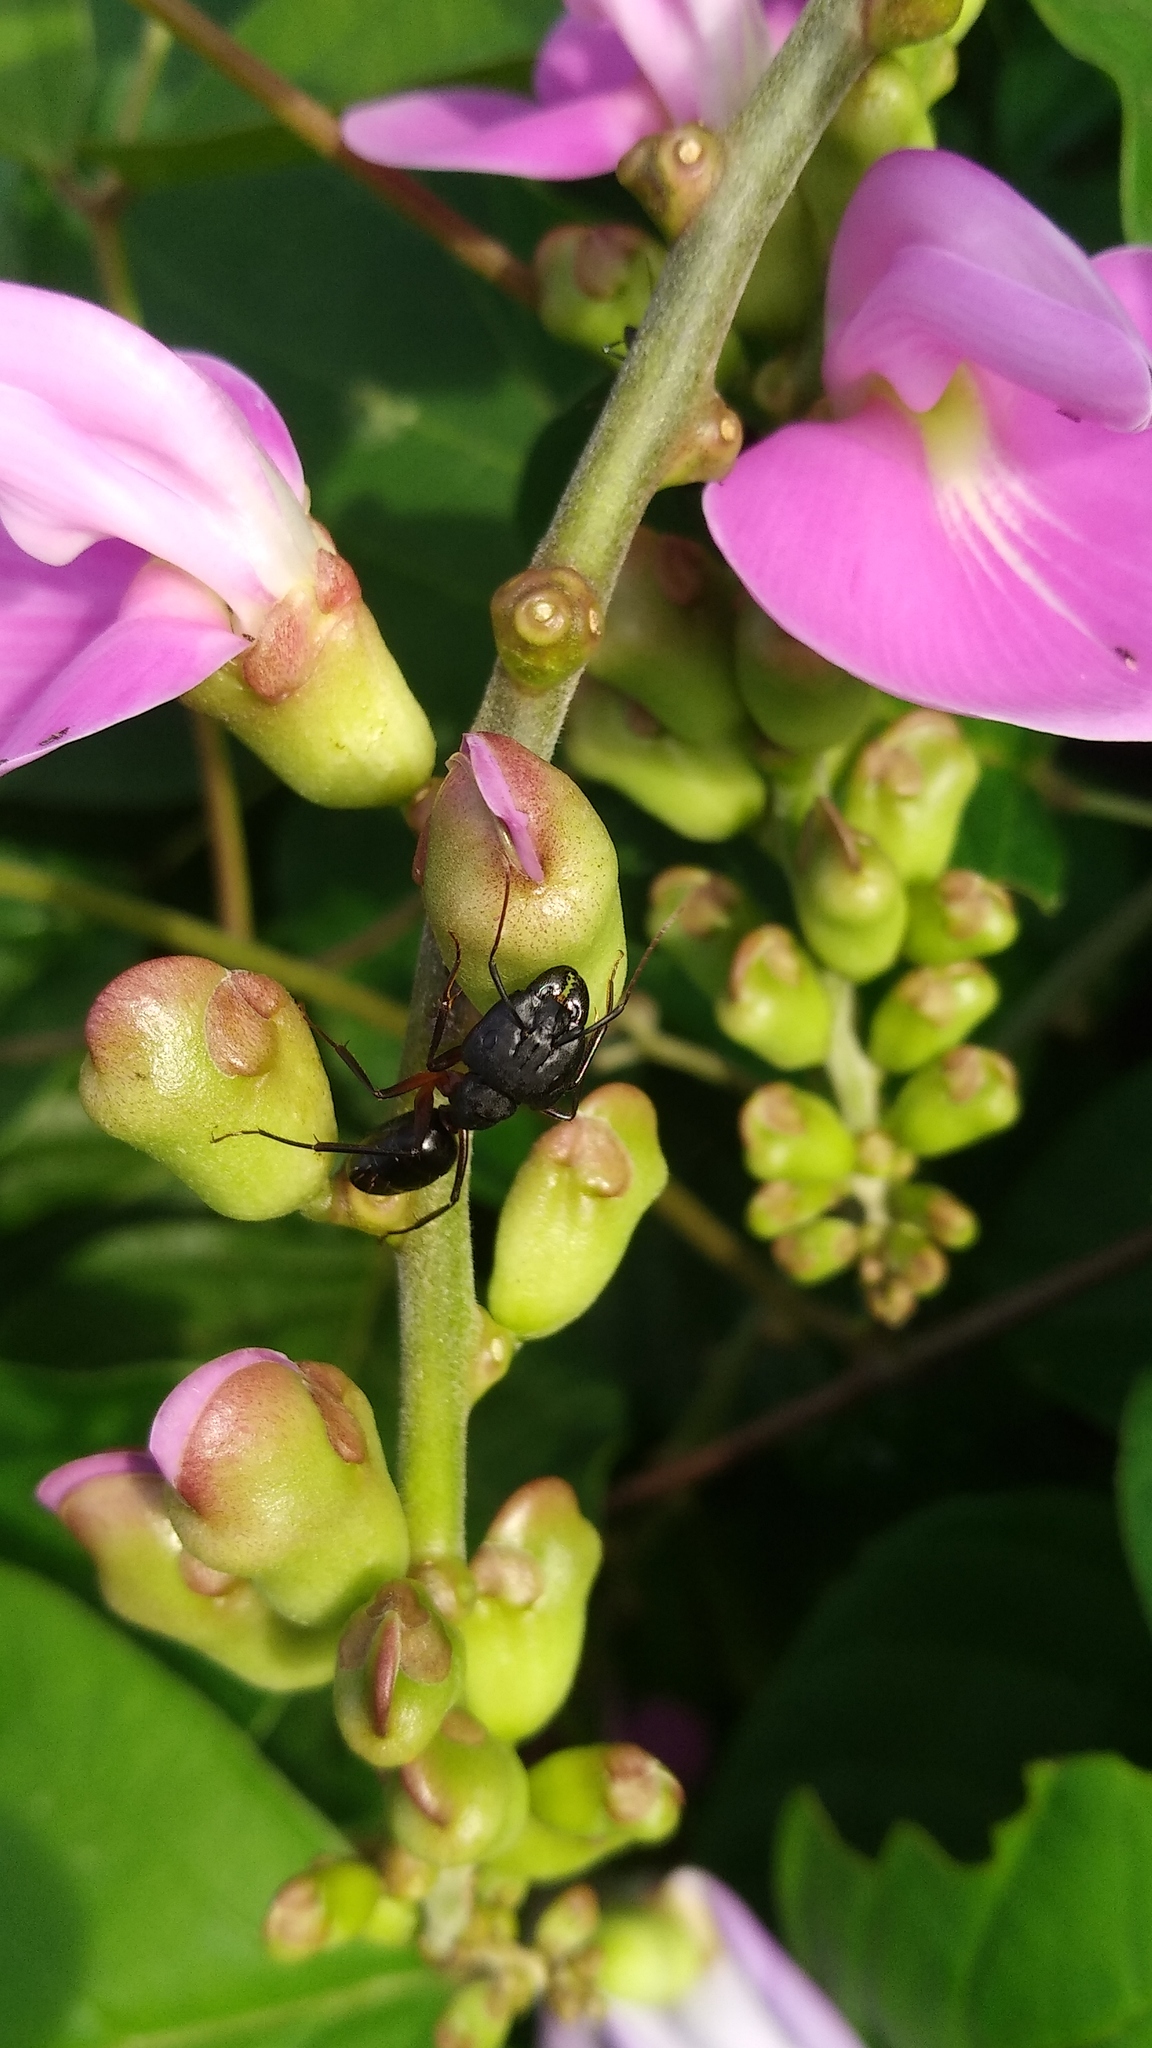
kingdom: Animalia
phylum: Arthropoda
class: Insecta
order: Hymenoptera
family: Formicidae
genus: Camponotus
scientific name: Camponotus compressus
